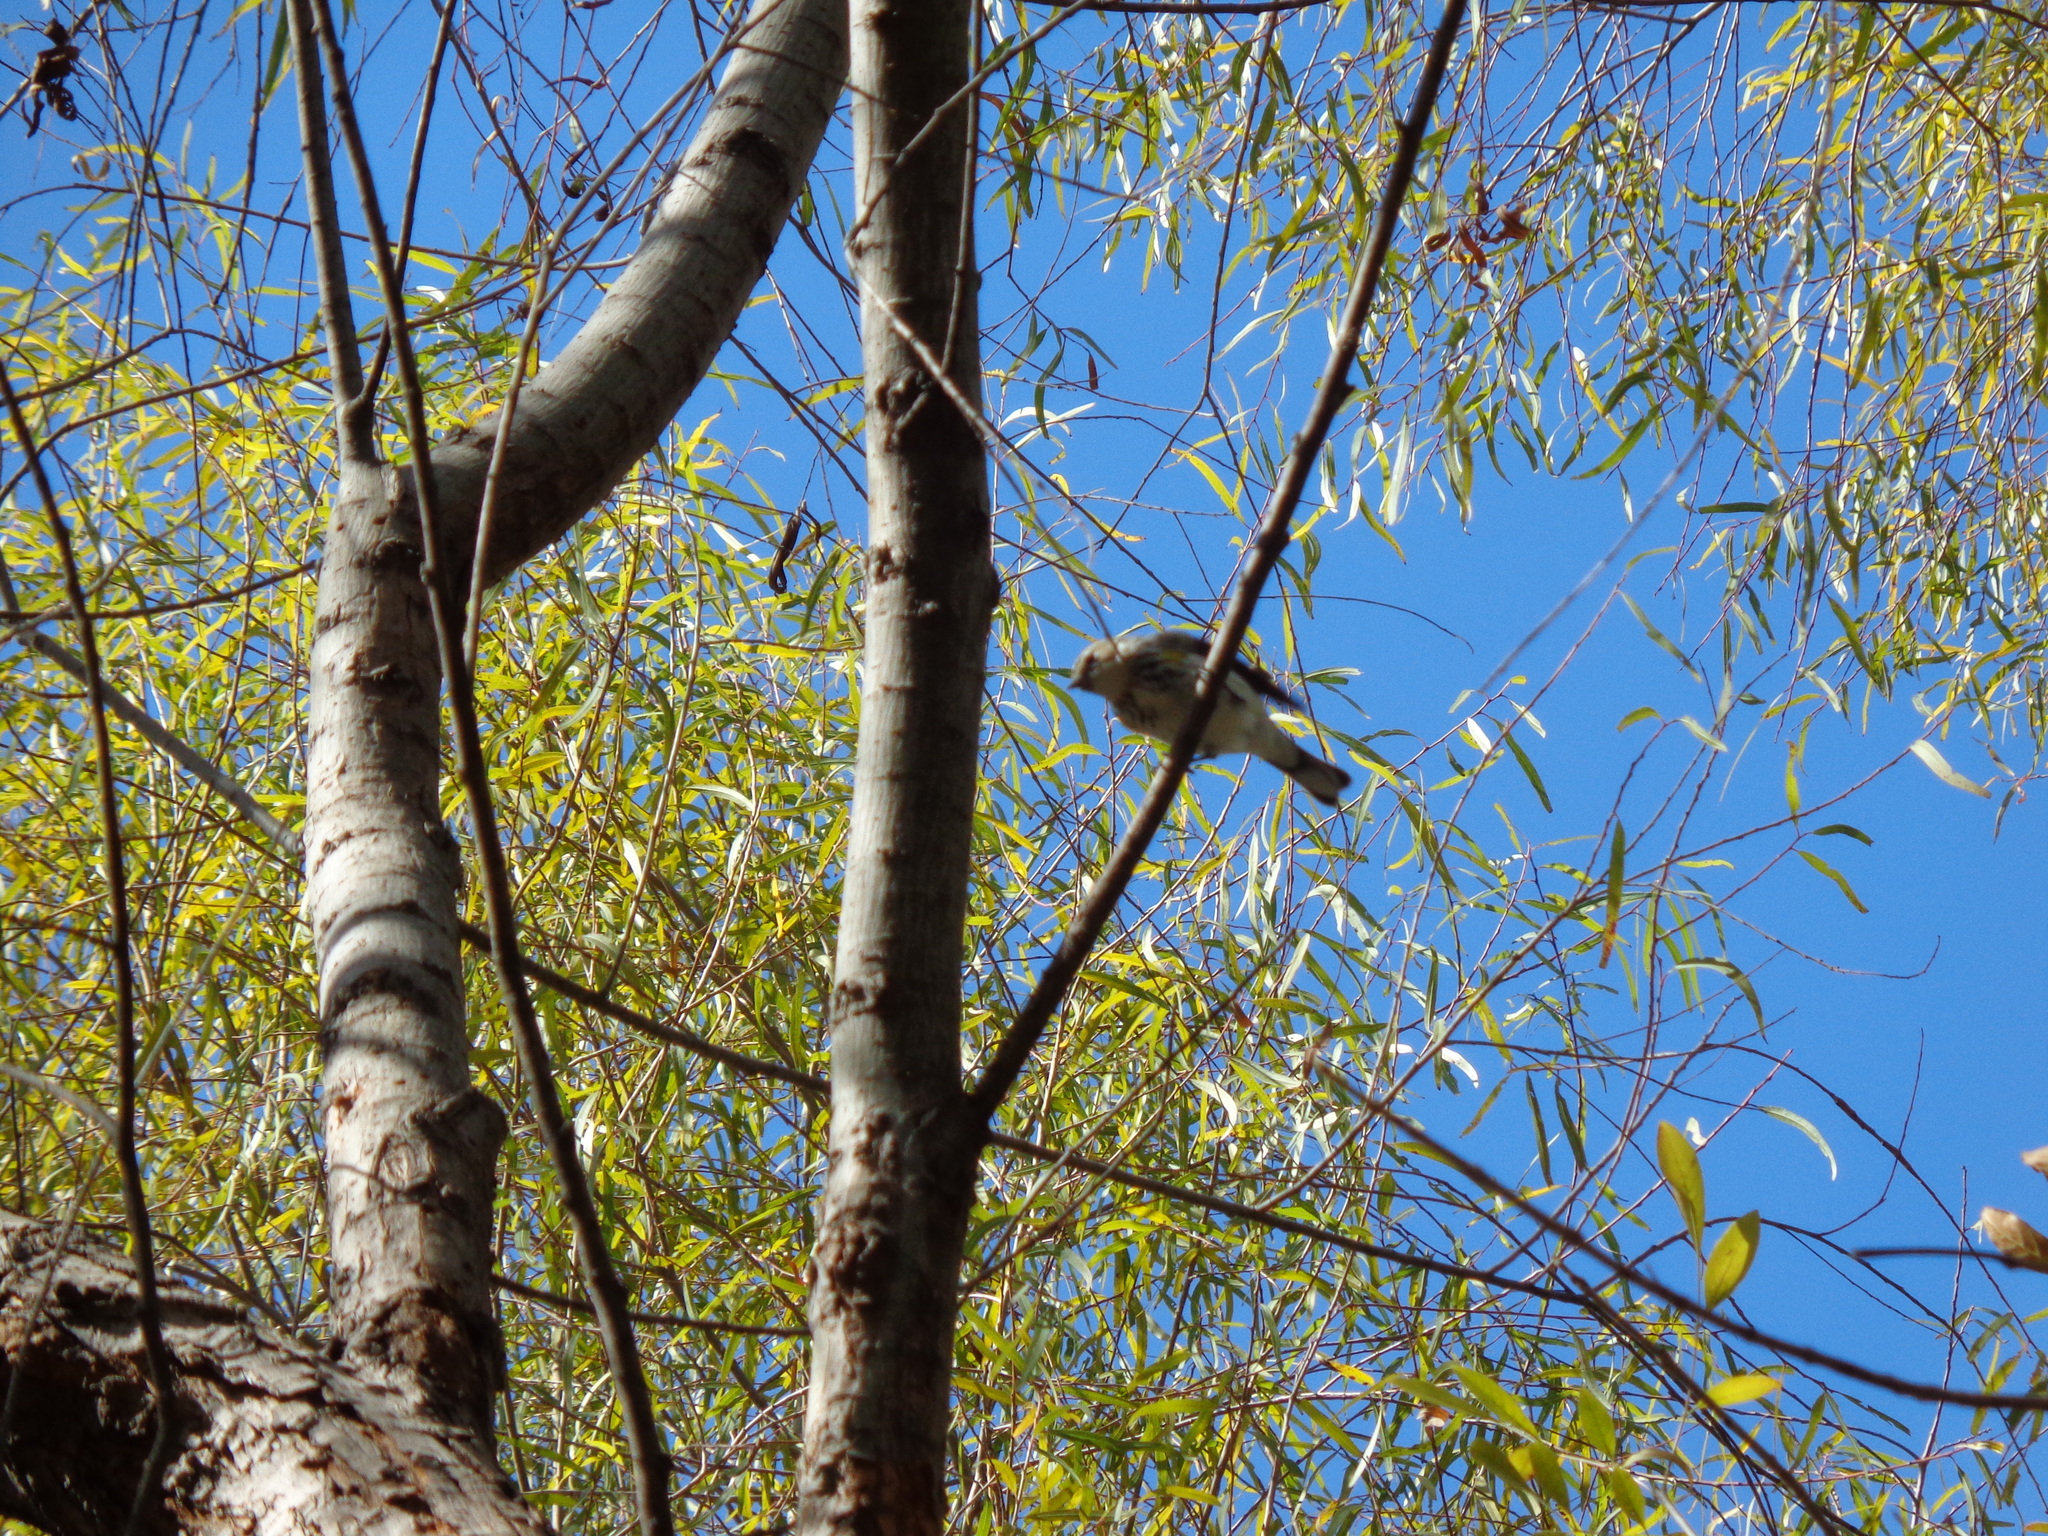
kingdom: Animalia
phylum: Chordata
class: Aves
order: Passeriformes
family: Parulidae
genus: Setophaga
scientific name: Setophaga coronata
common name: Myrtle warbler
